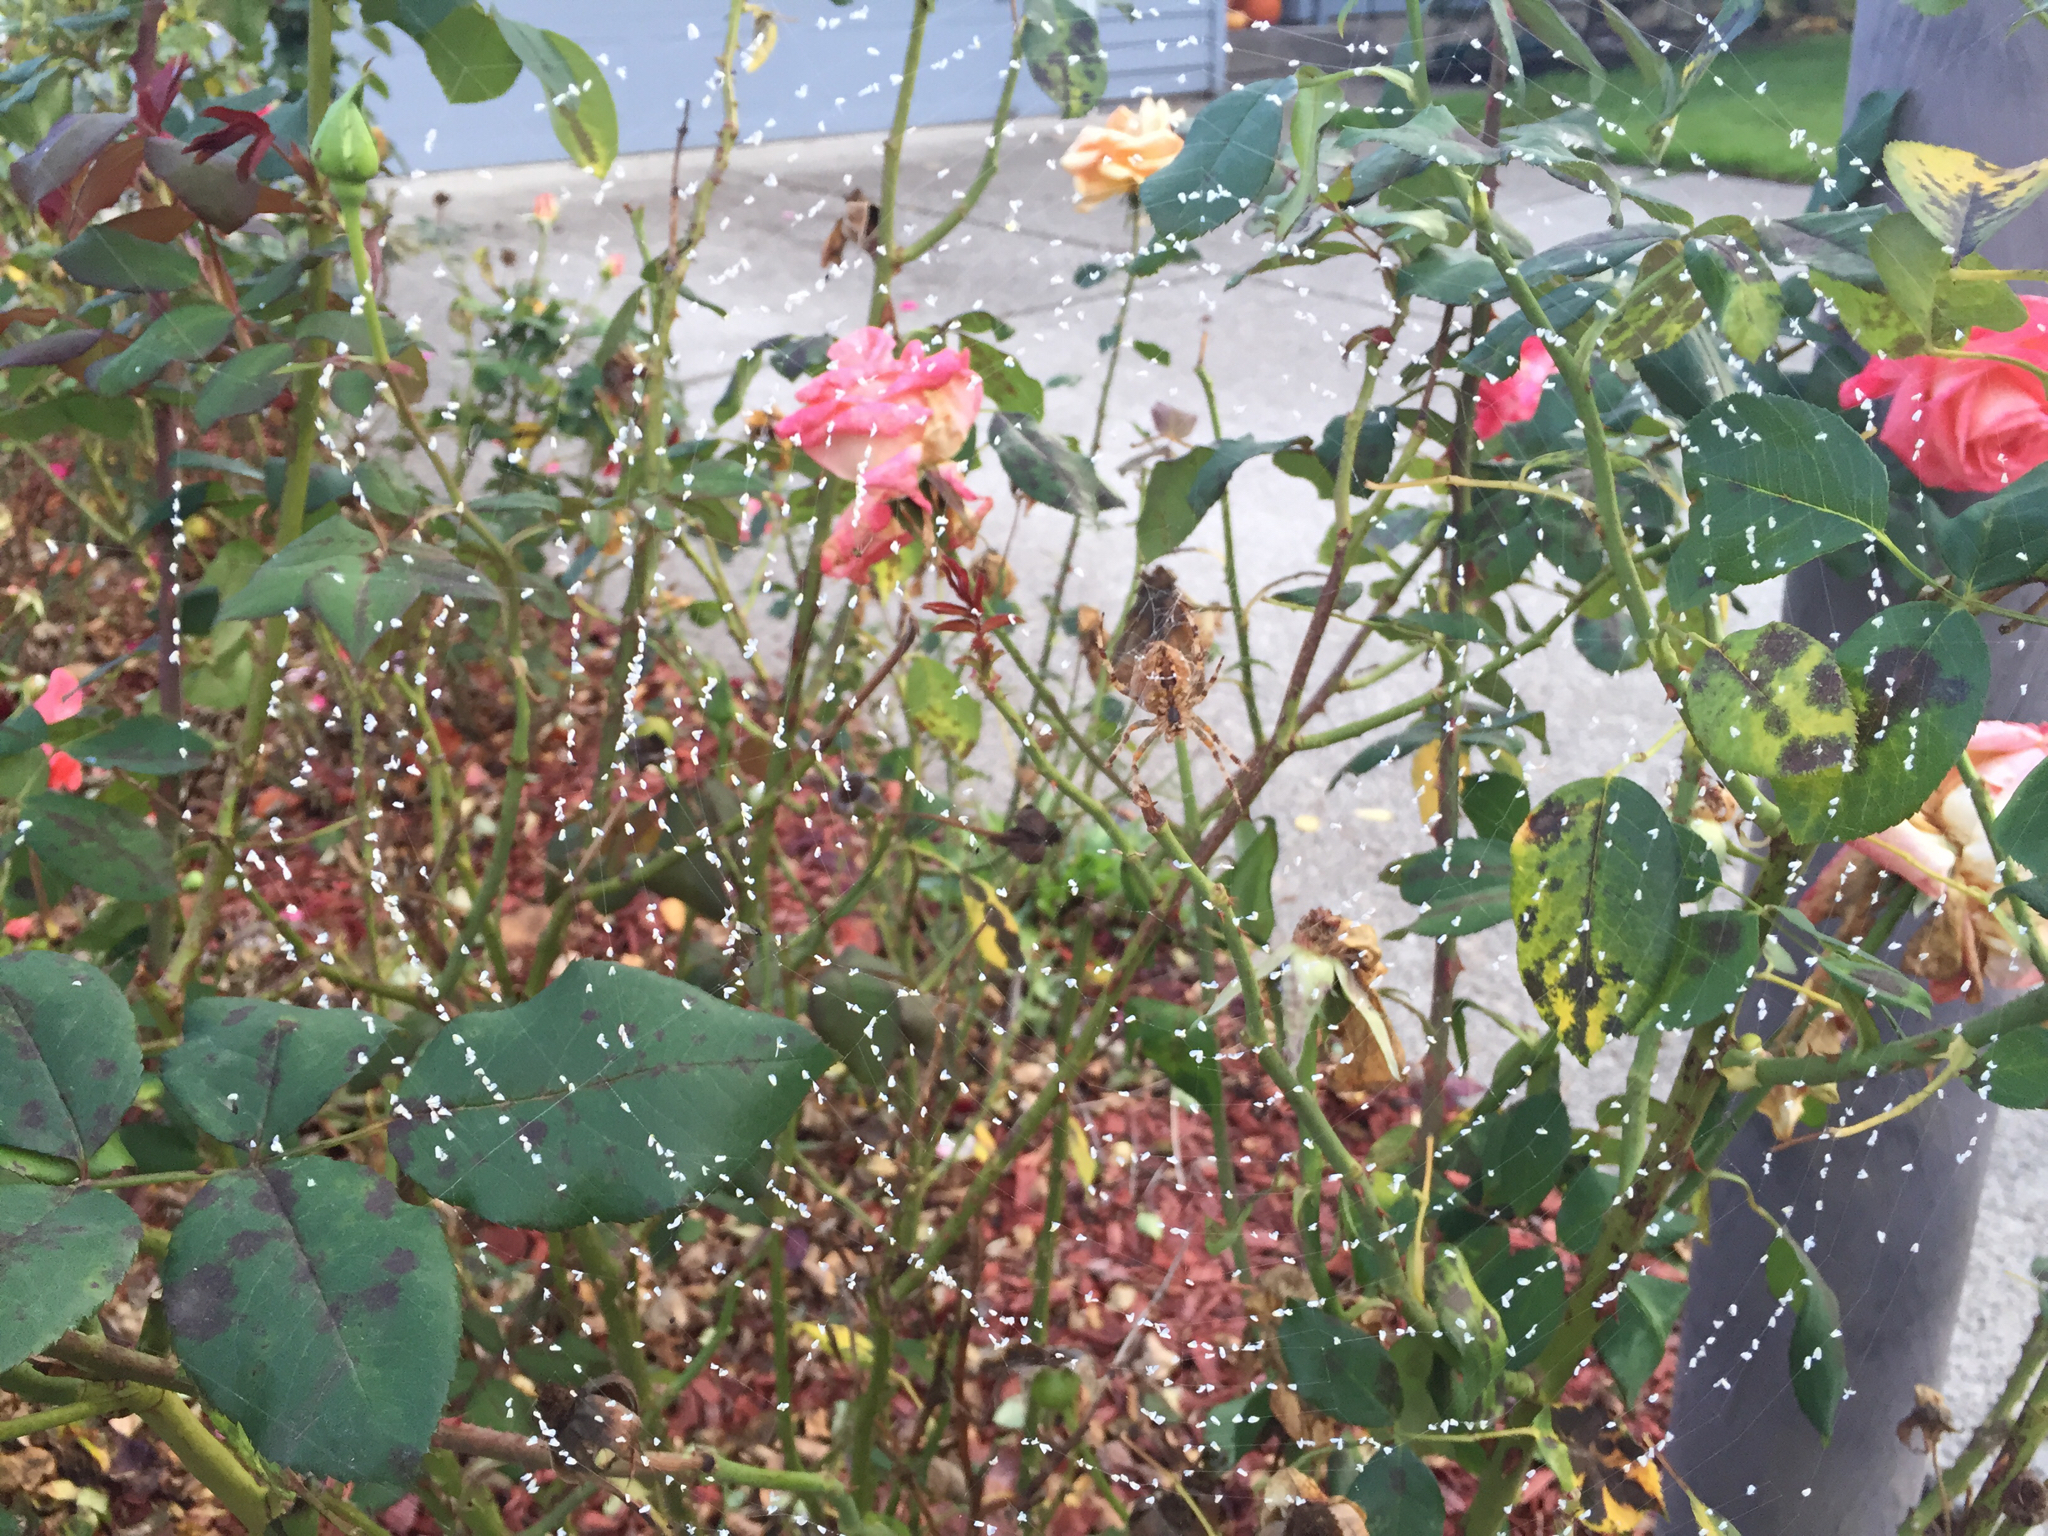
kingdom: Animalia
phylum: Arthropoda
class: Arachnida
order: Araneae
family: Araneidae
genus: Araneus
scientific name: Araneus diadematus
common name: Cross orbweaver
